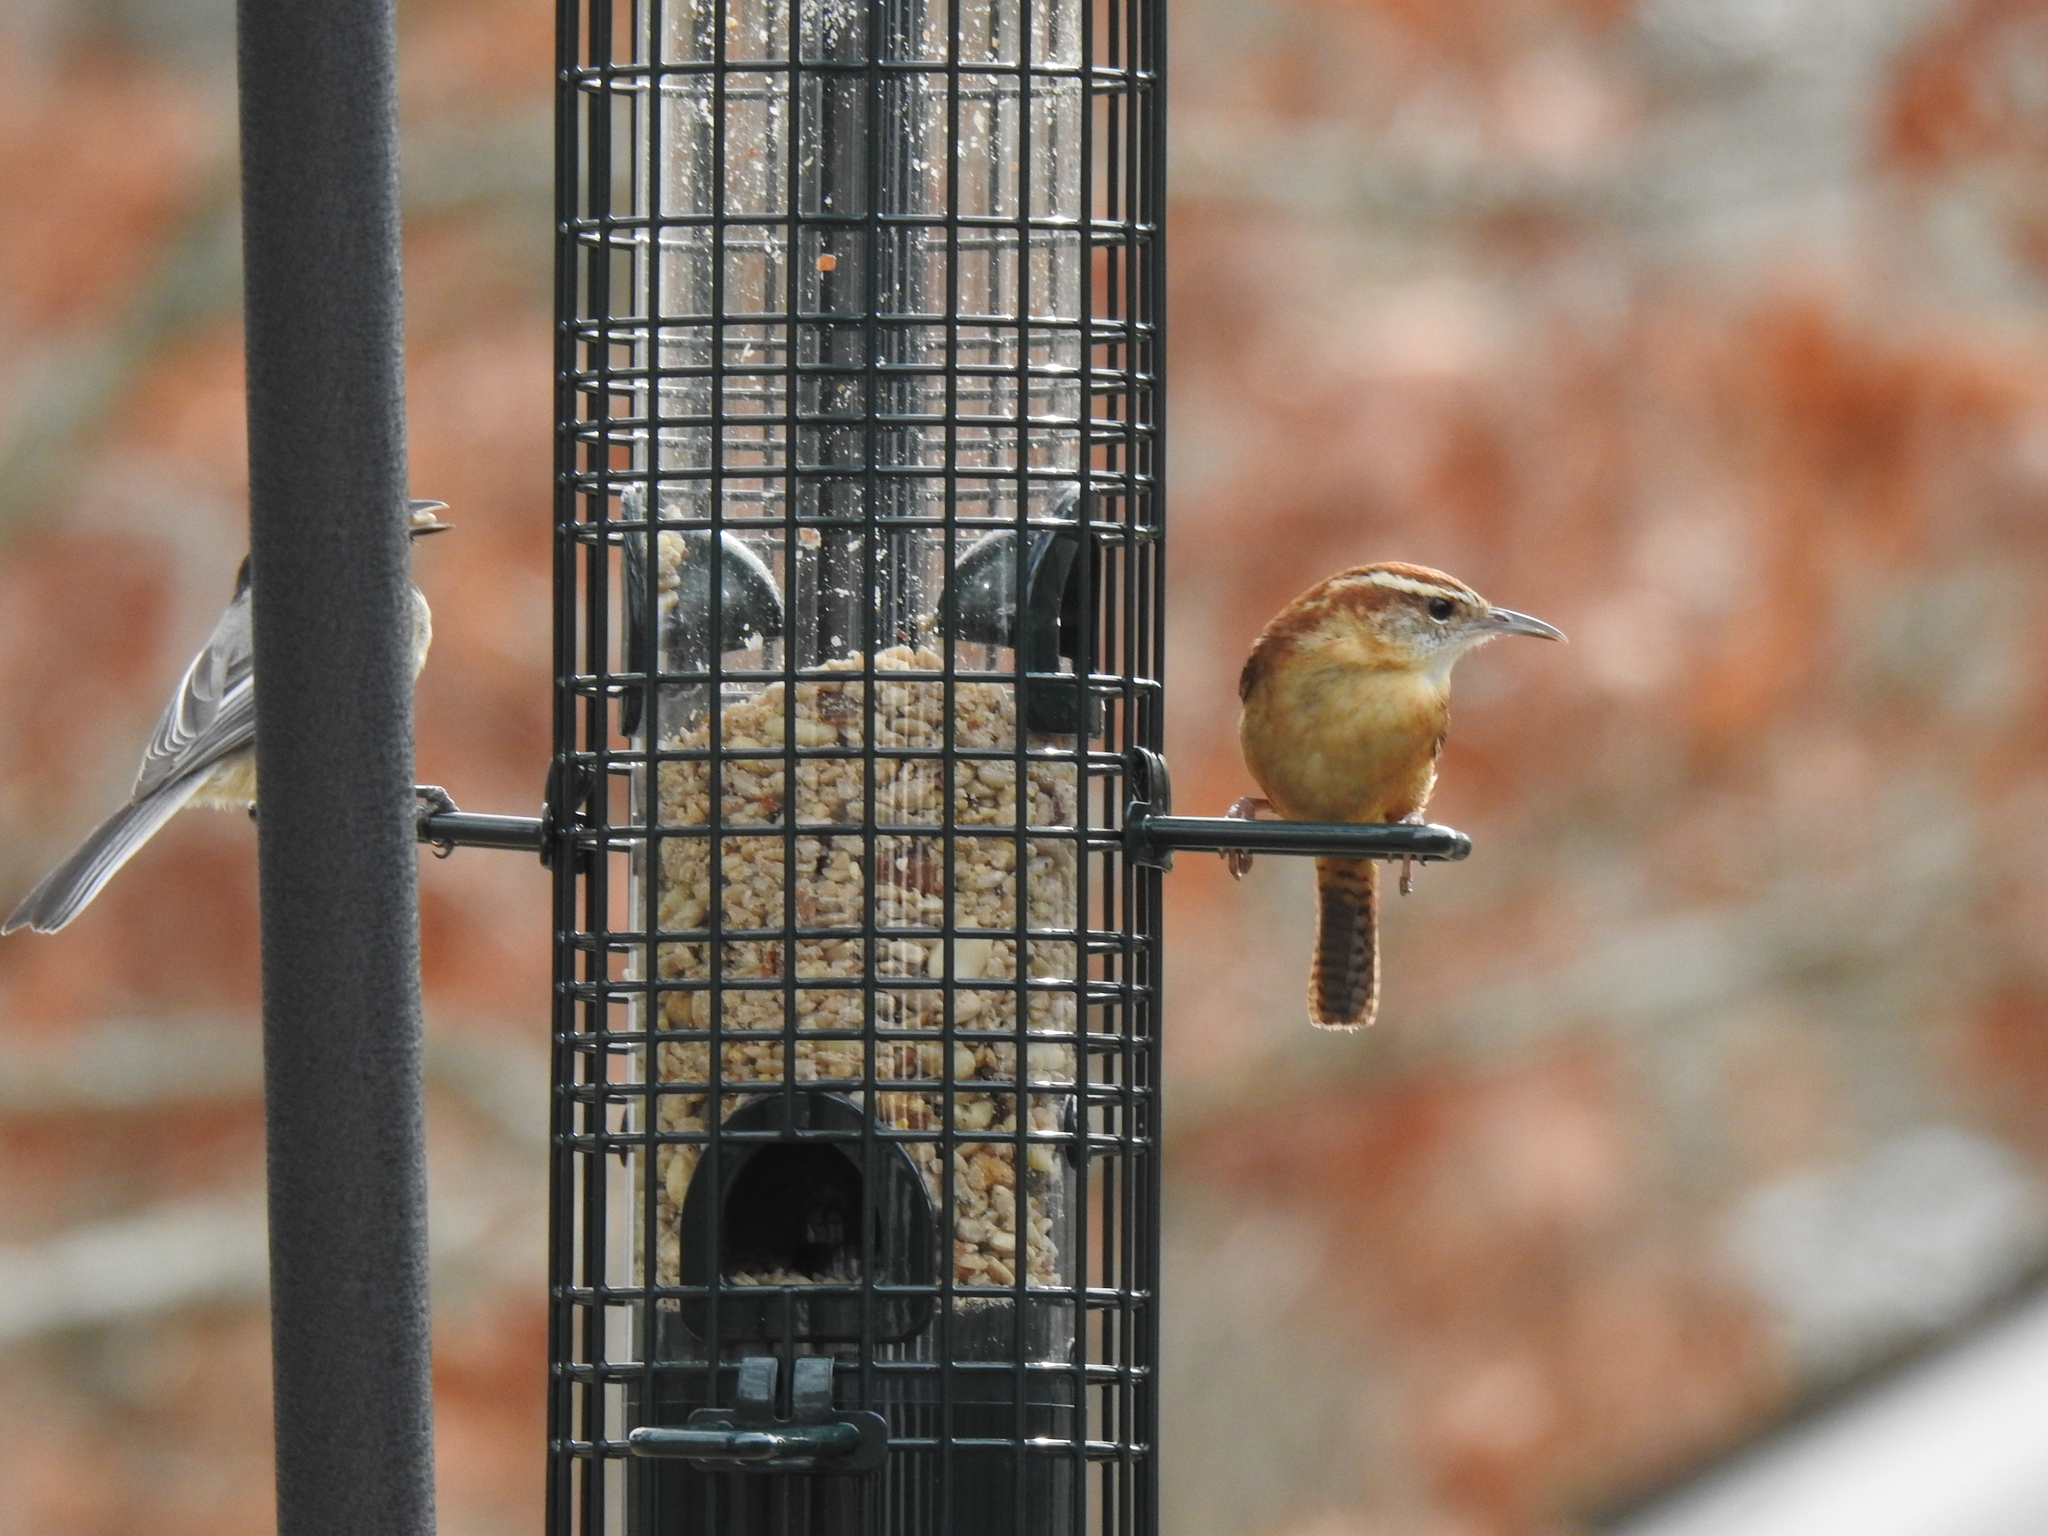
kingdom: Animalia
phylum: Chordata
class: Aves
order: Passeriformes
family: Troglodytidae
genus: Thryothorus
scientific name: Thryothorus ludovicianus
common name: Carolina wren
